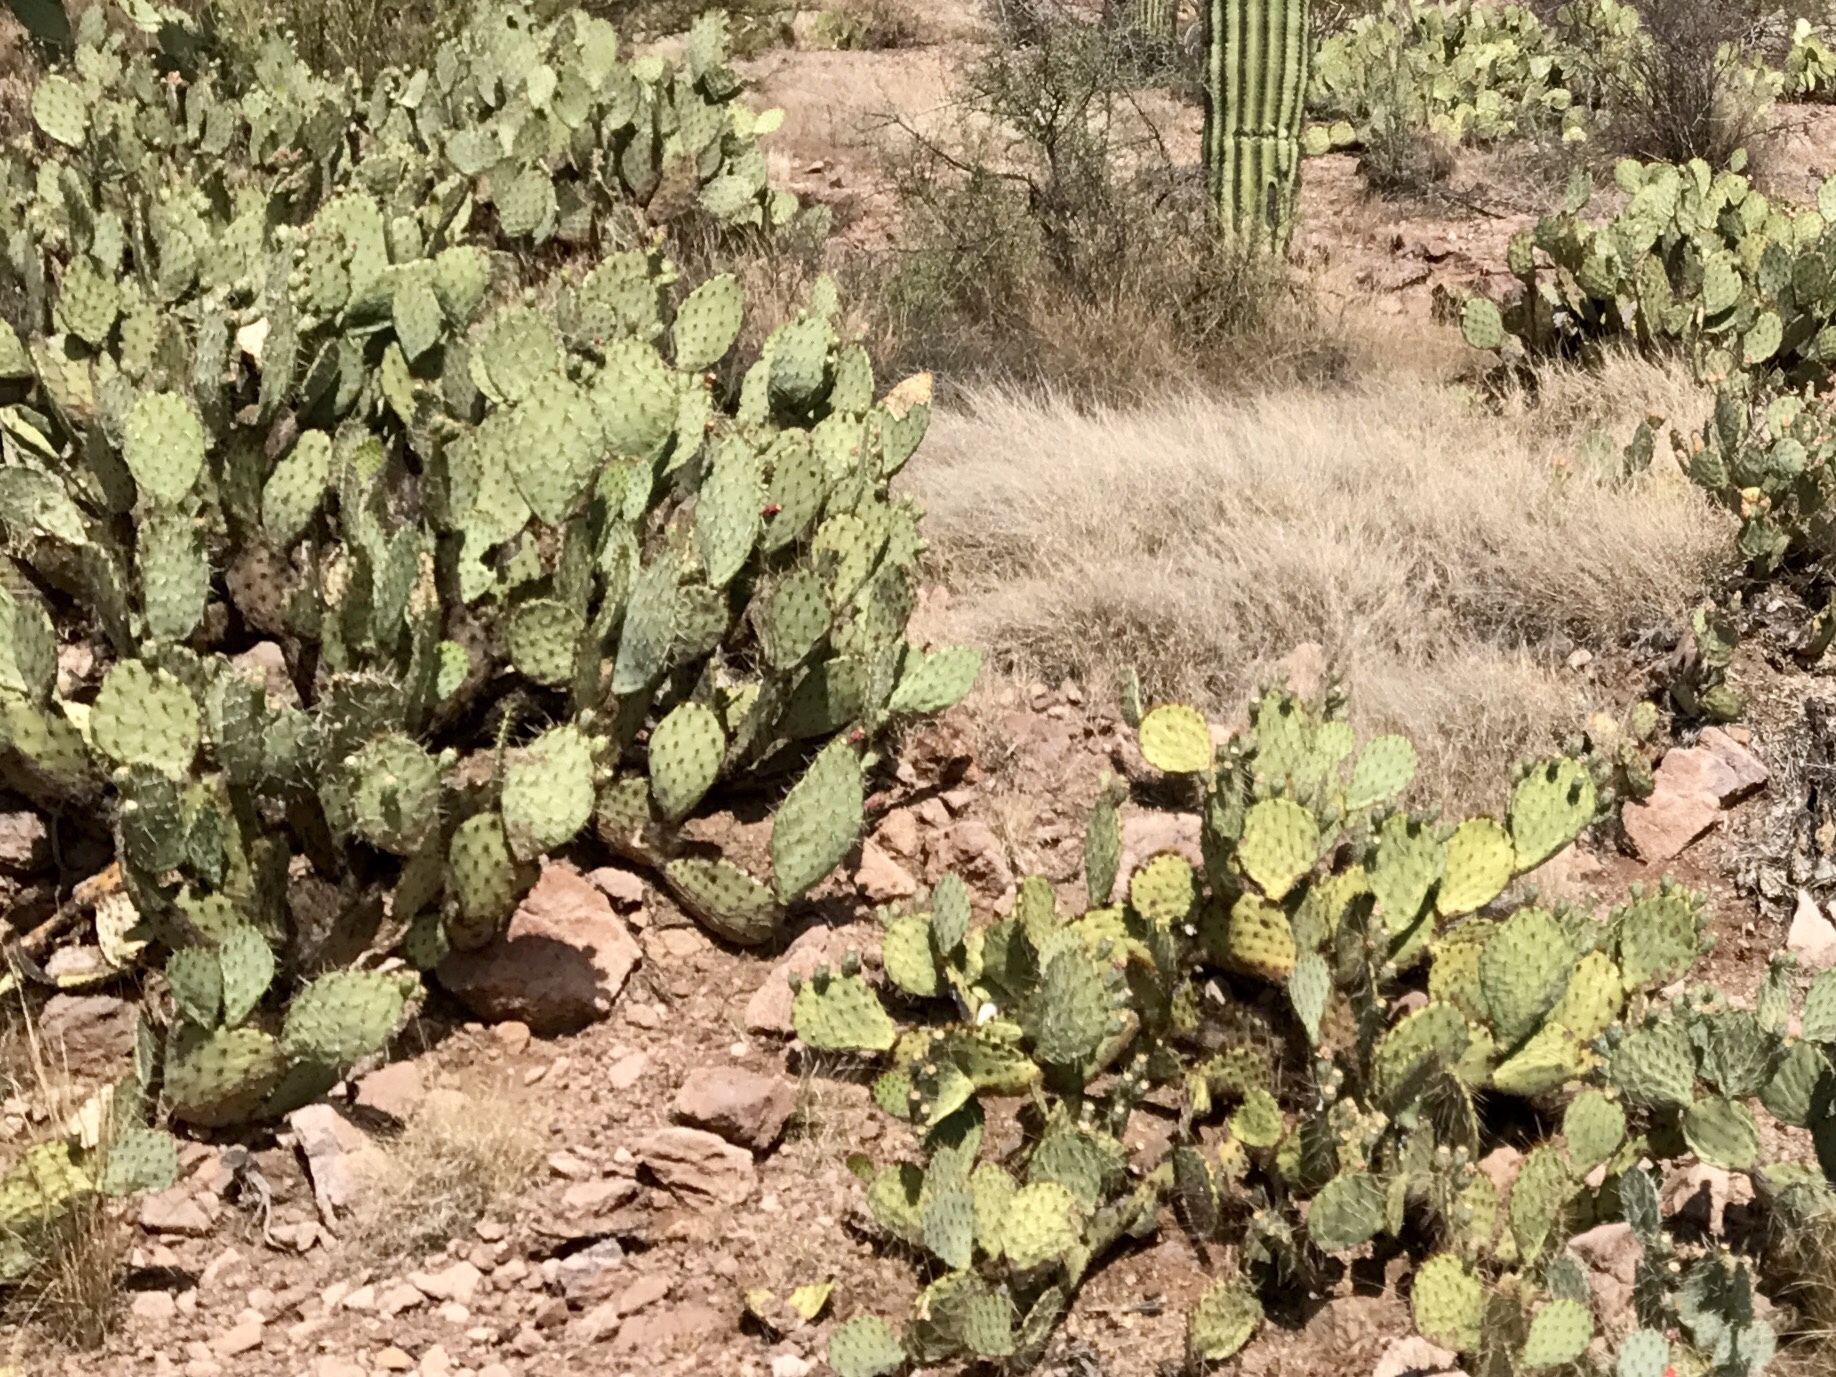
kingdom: Plantae
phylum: Tracheophyta
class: Magnoliopsida
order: Caryophyllales
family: Cactaceae
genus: Opuntia
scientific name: Opuntia engelmannii
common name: Cactus-apple
